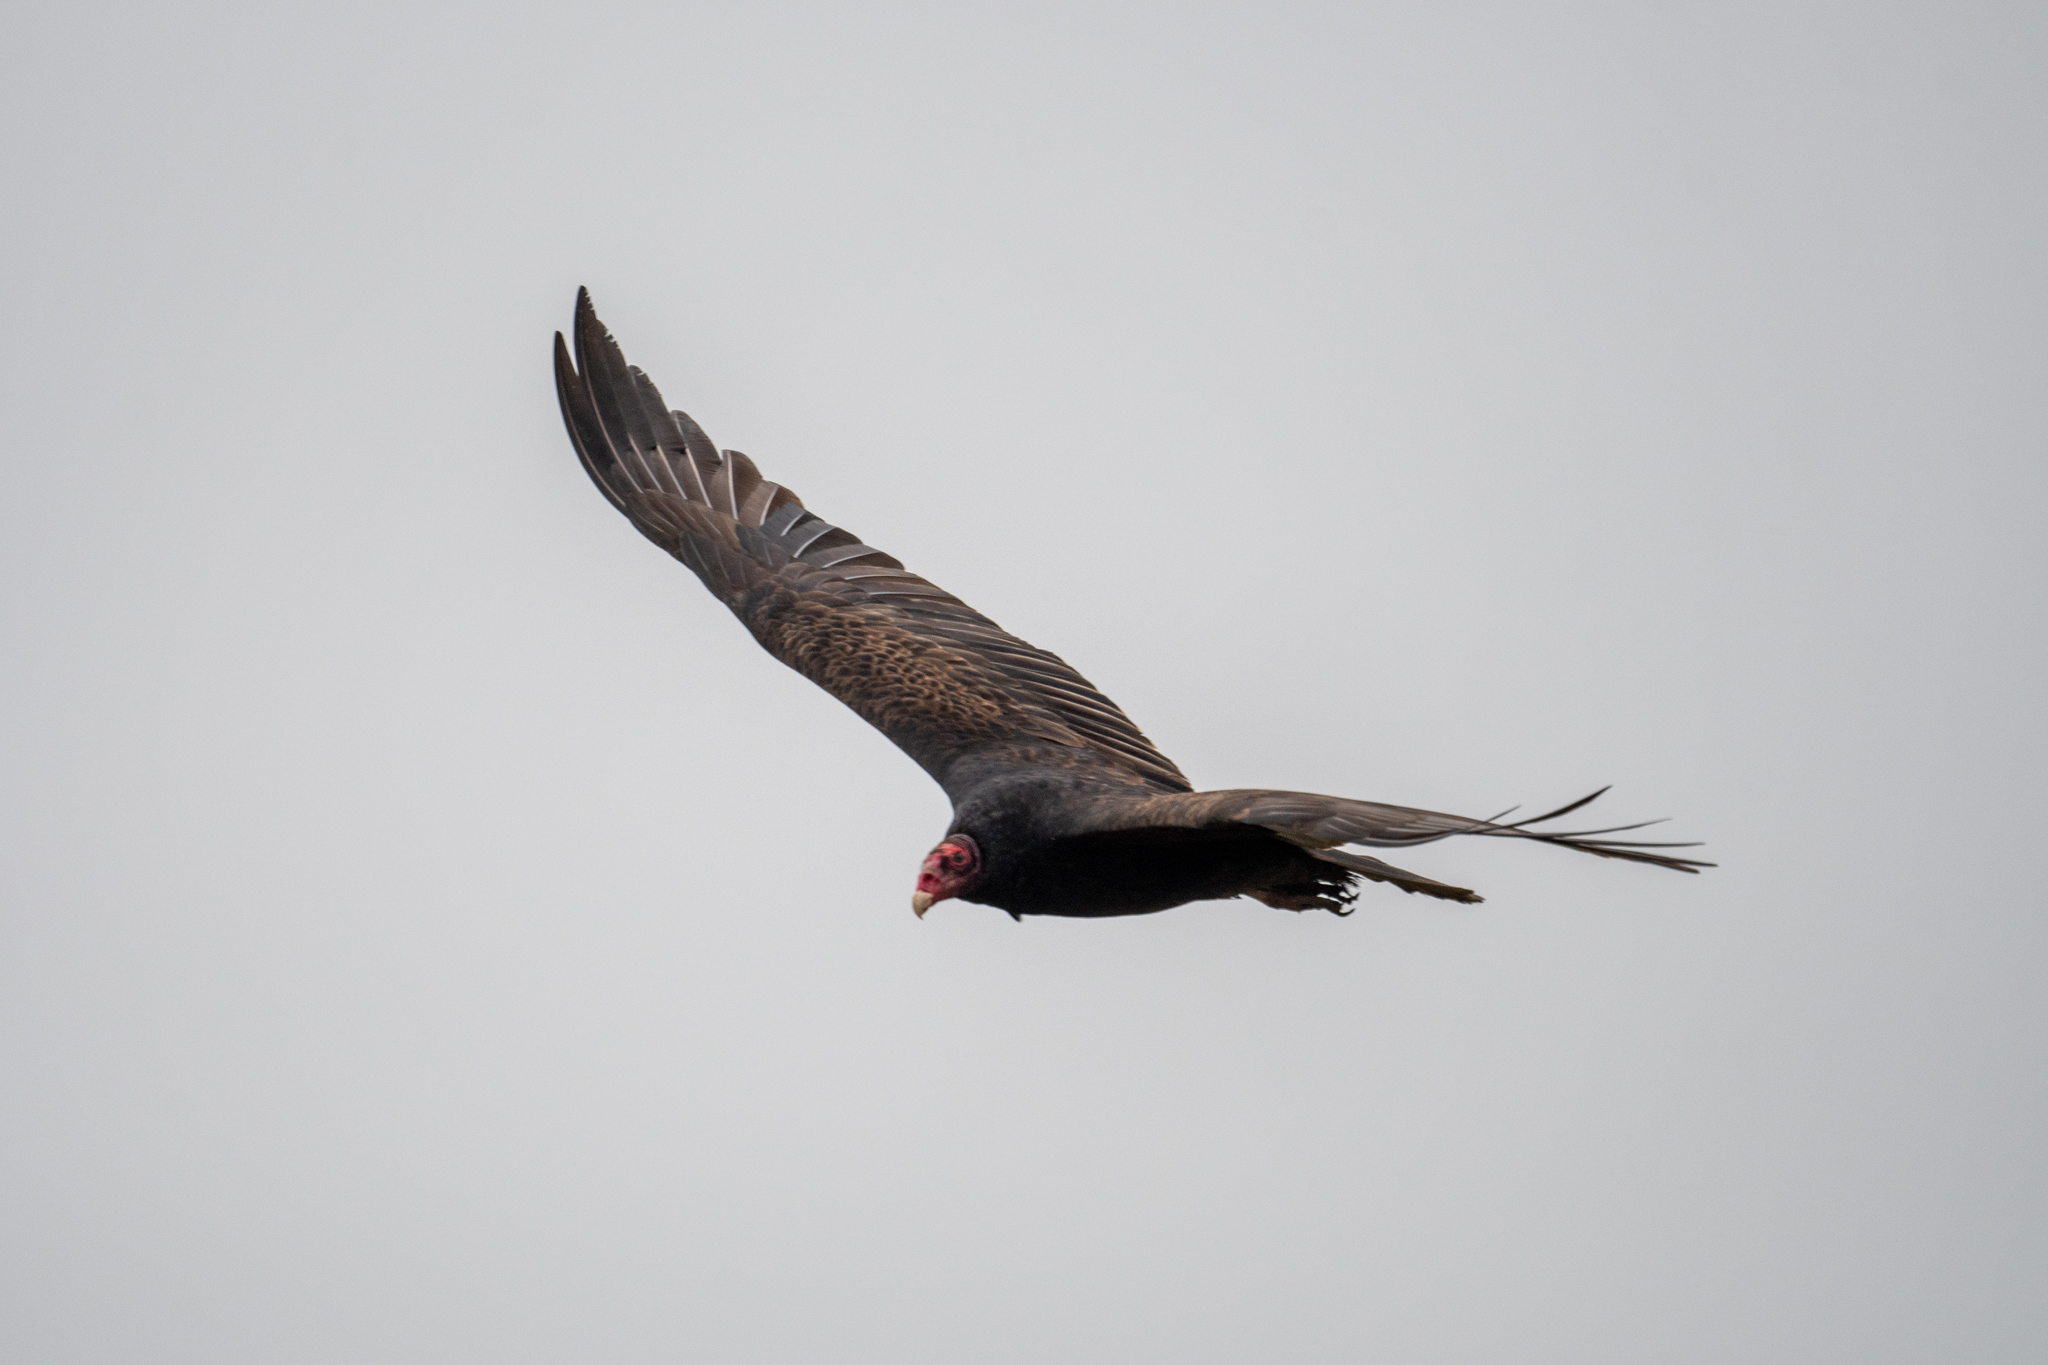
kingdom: Animalia
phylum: Chordata
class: Aves
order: Accipitriformes
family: Cathartidae
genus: Cathartes
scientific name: Cathartes aura
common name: Turkey vulture
